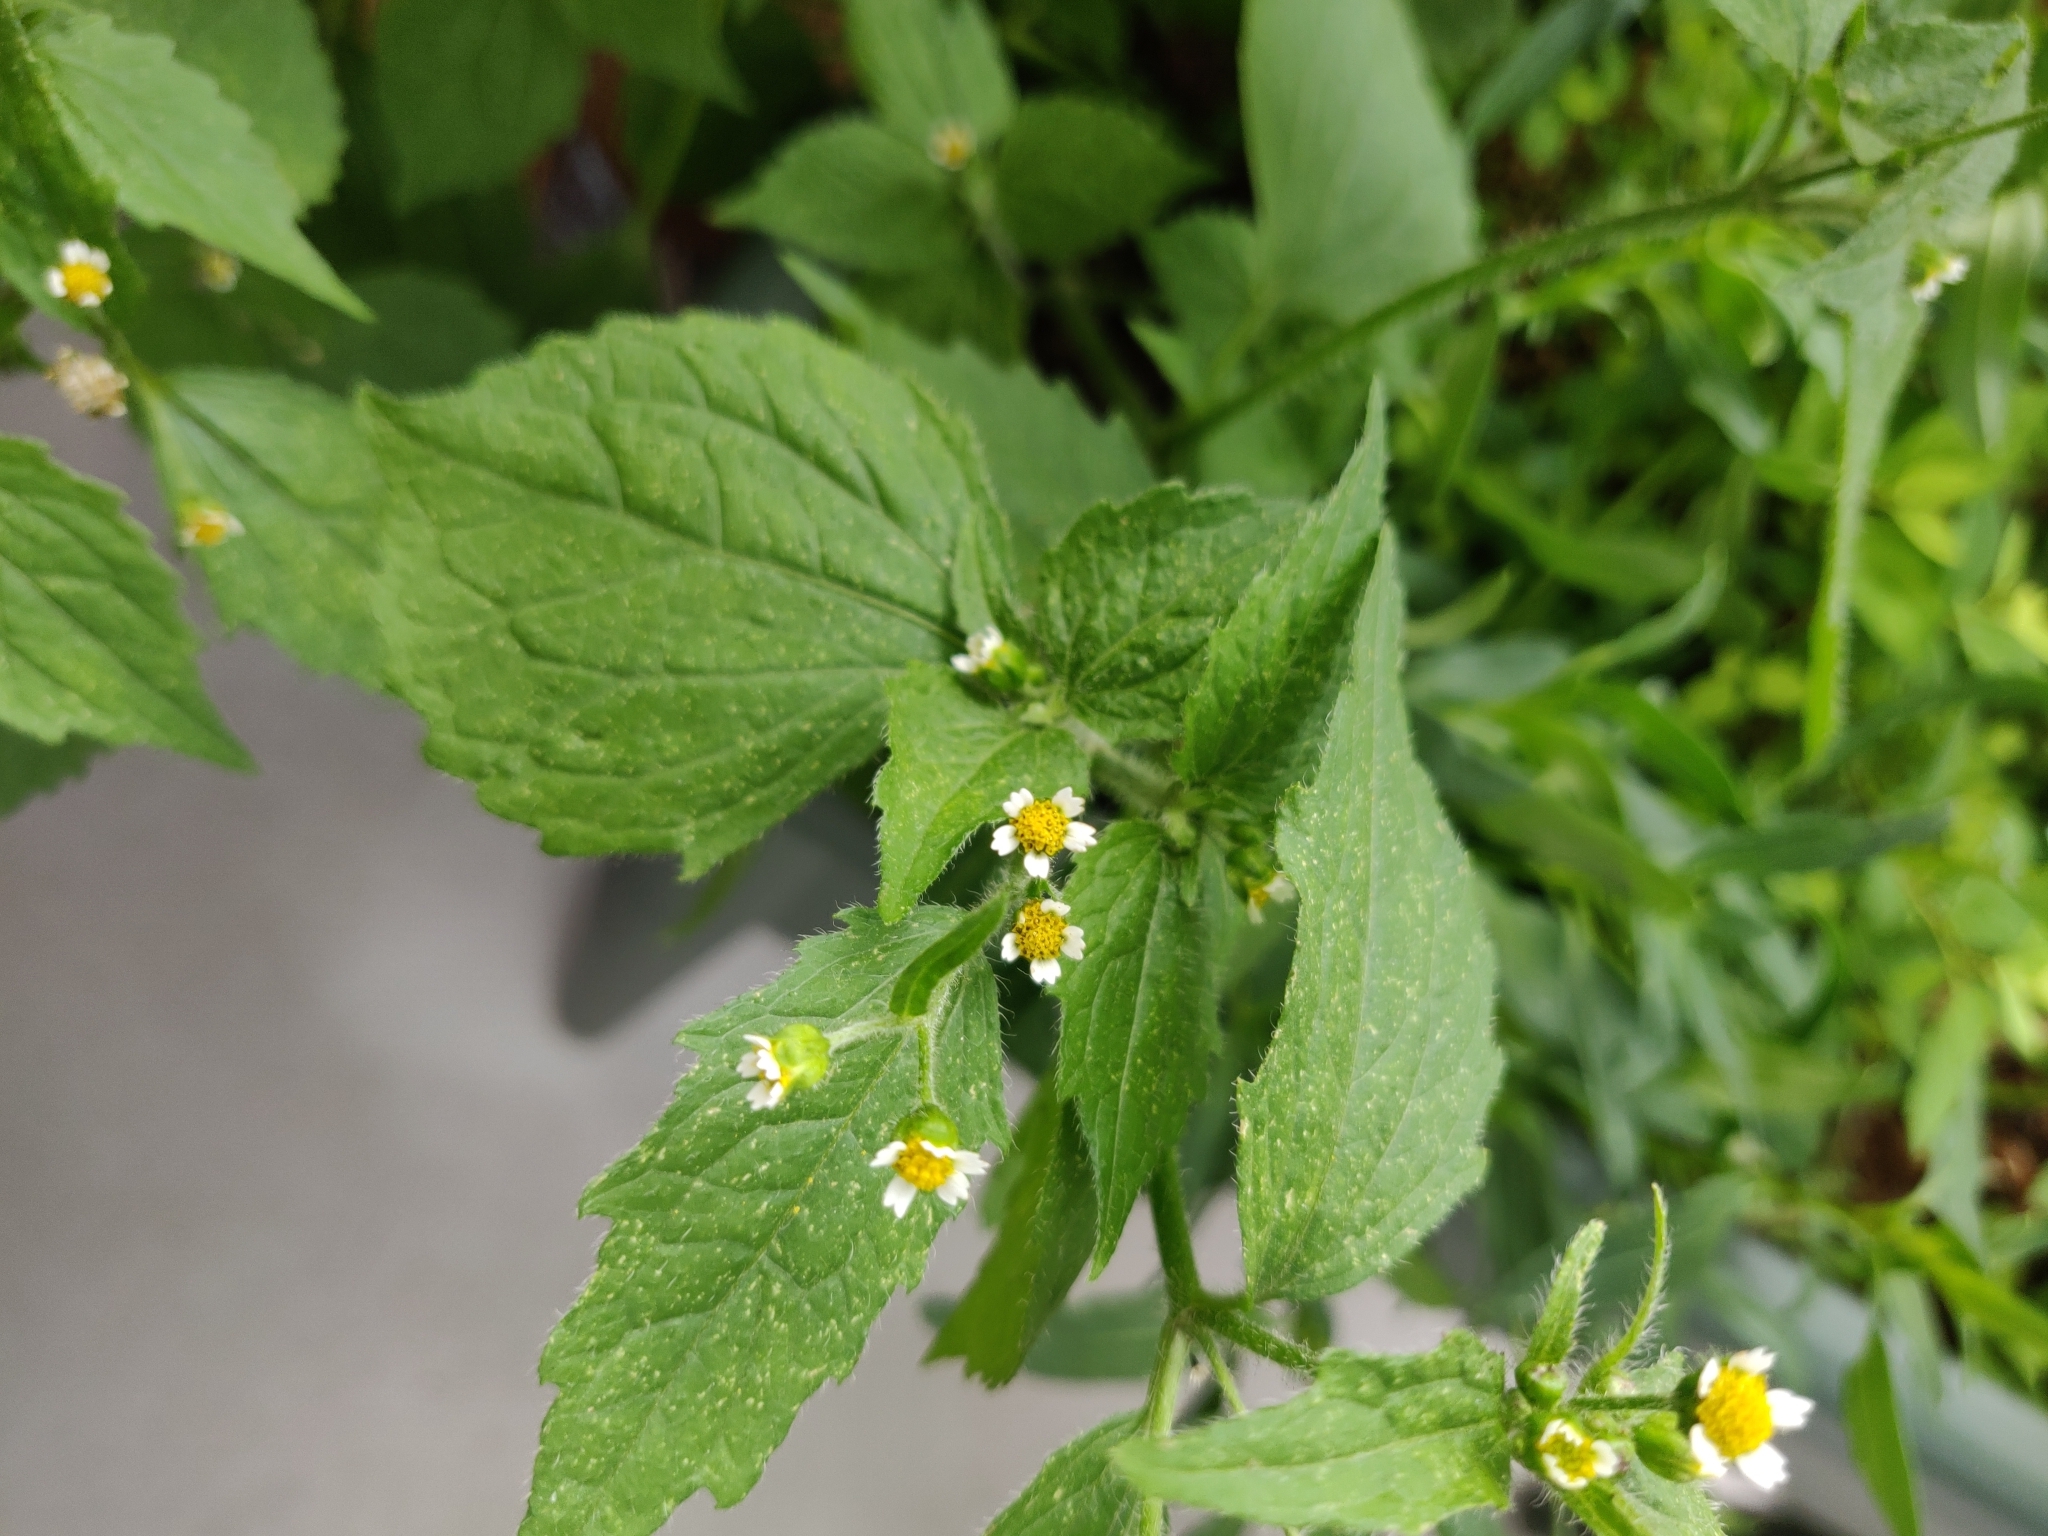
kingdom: Plantae
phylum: Tracheophyta
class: Magnoliopsida
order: Asterales
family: Asteraceae
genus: Galinsoga
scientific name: Galinsoga quadriradiata
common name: Shaggy soldier
